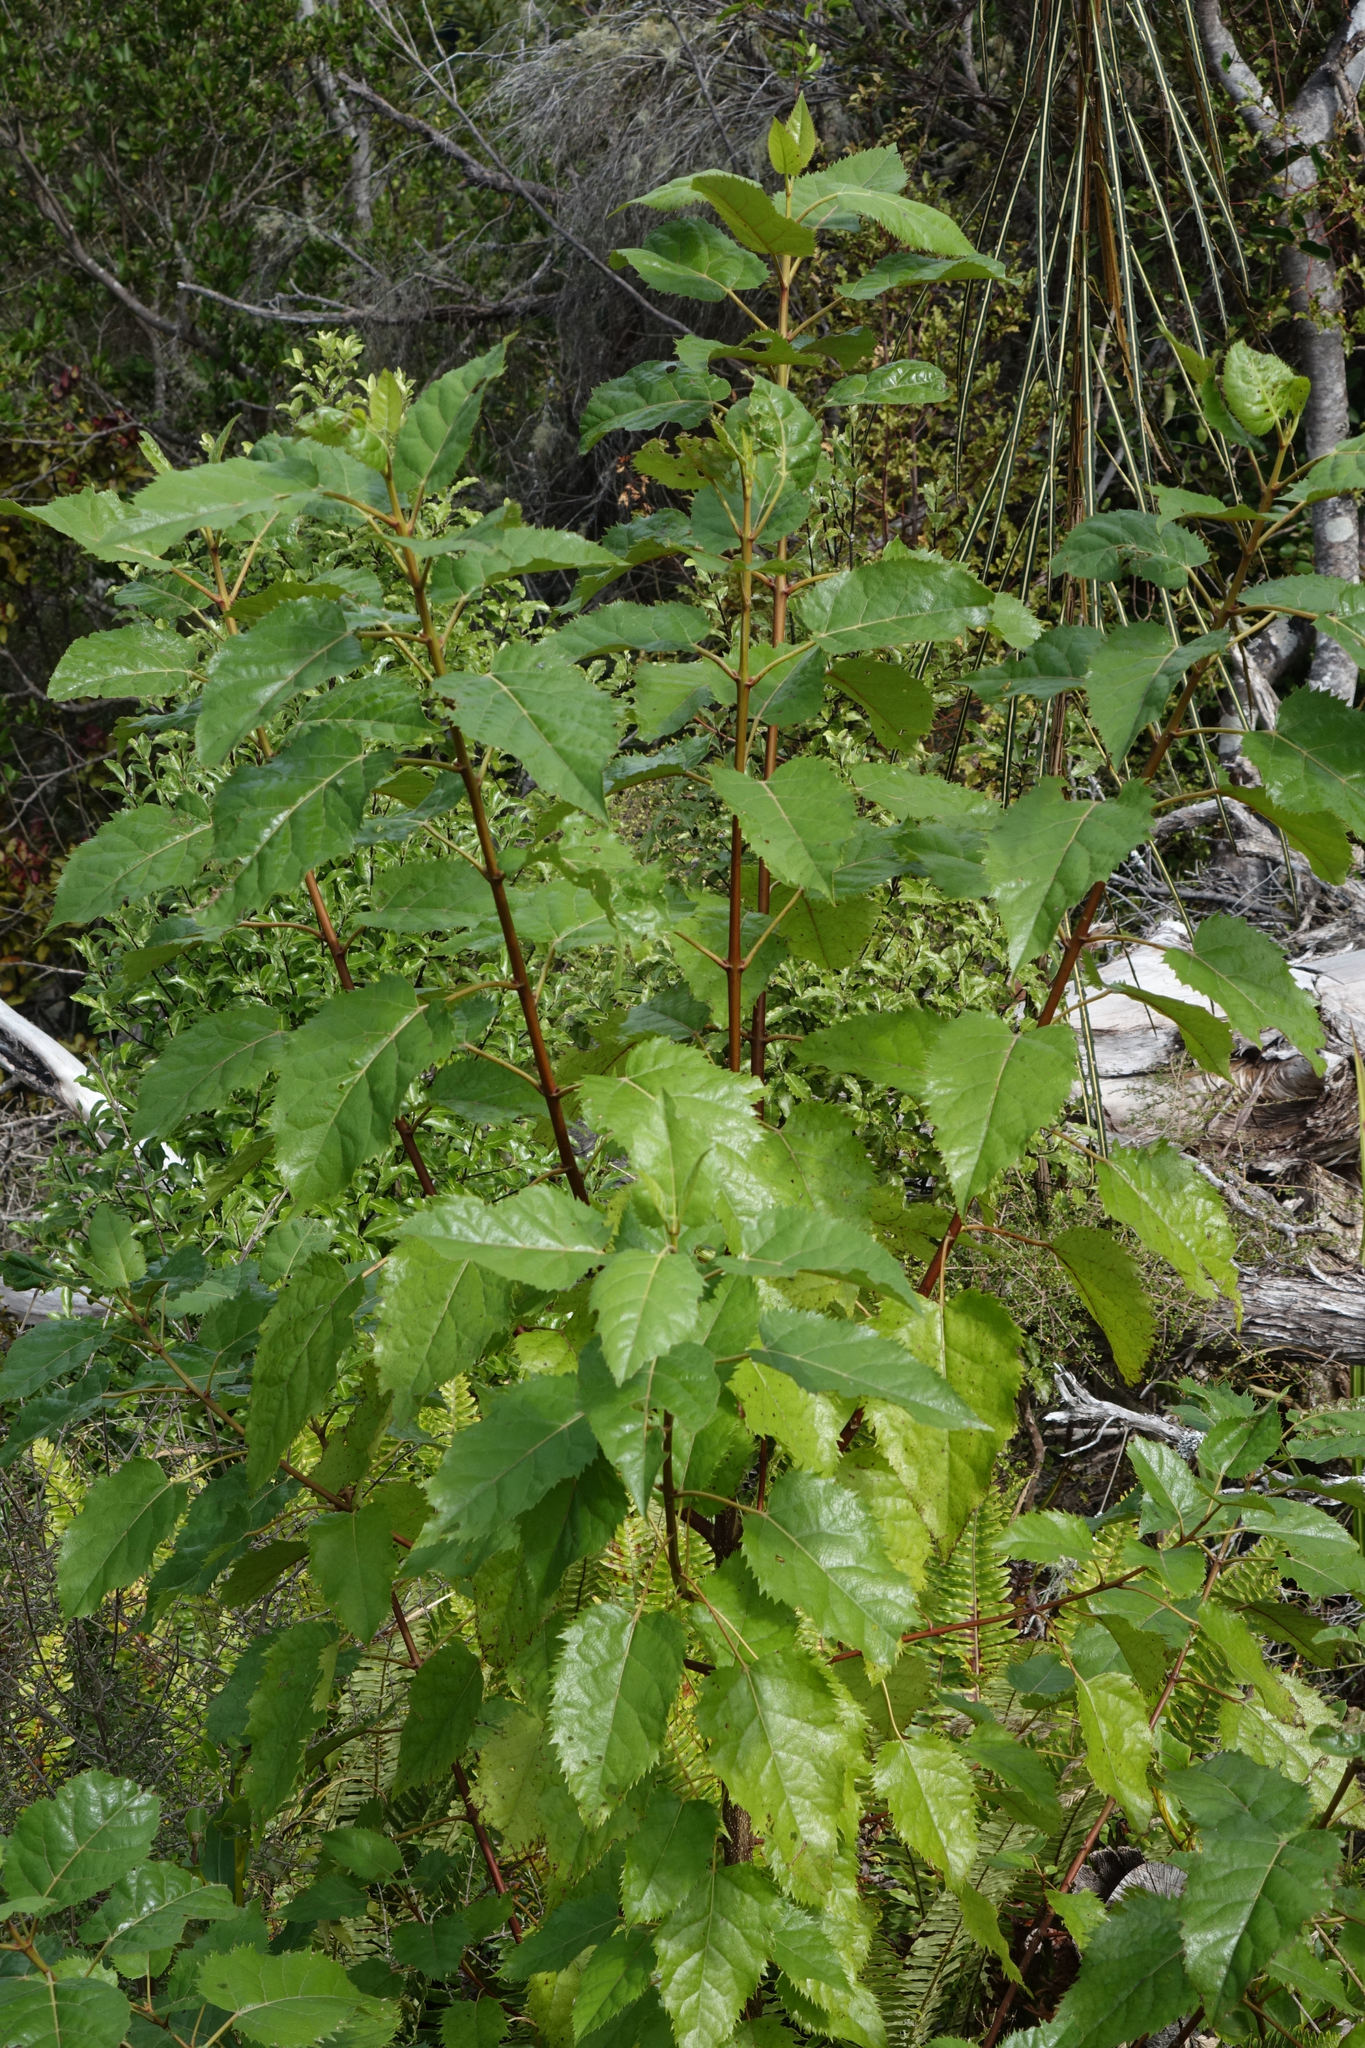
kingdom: Plantae
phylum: Tracheophyta
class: Magnoliopsida
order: Oxalidales
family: Elaeocarpaceae
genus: Aristotelia
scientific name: Aristotelia serrata
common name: New zealand wineberry
